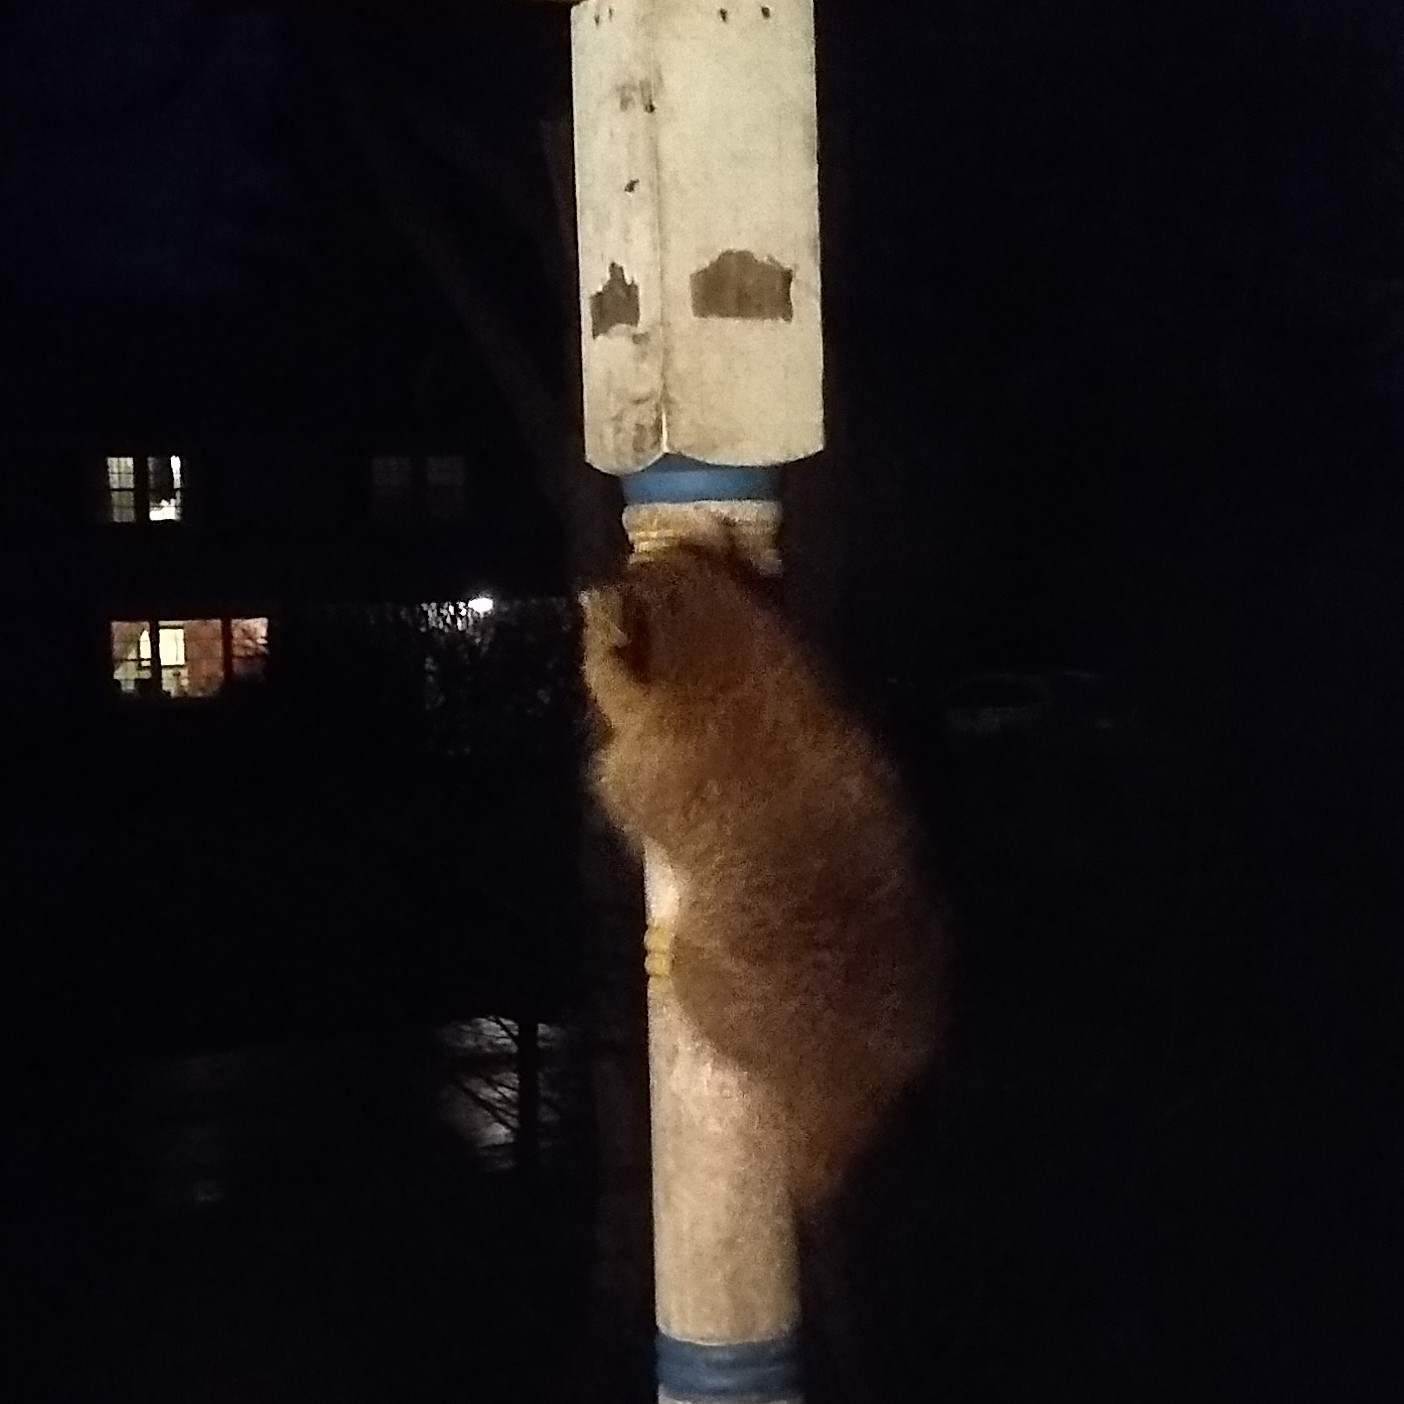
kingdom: Animalia
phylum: Chordata
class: Mammalia
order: Carnivora
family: Procyonidae
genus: Procyon
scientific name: Procyon lotor
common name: Raccoon
